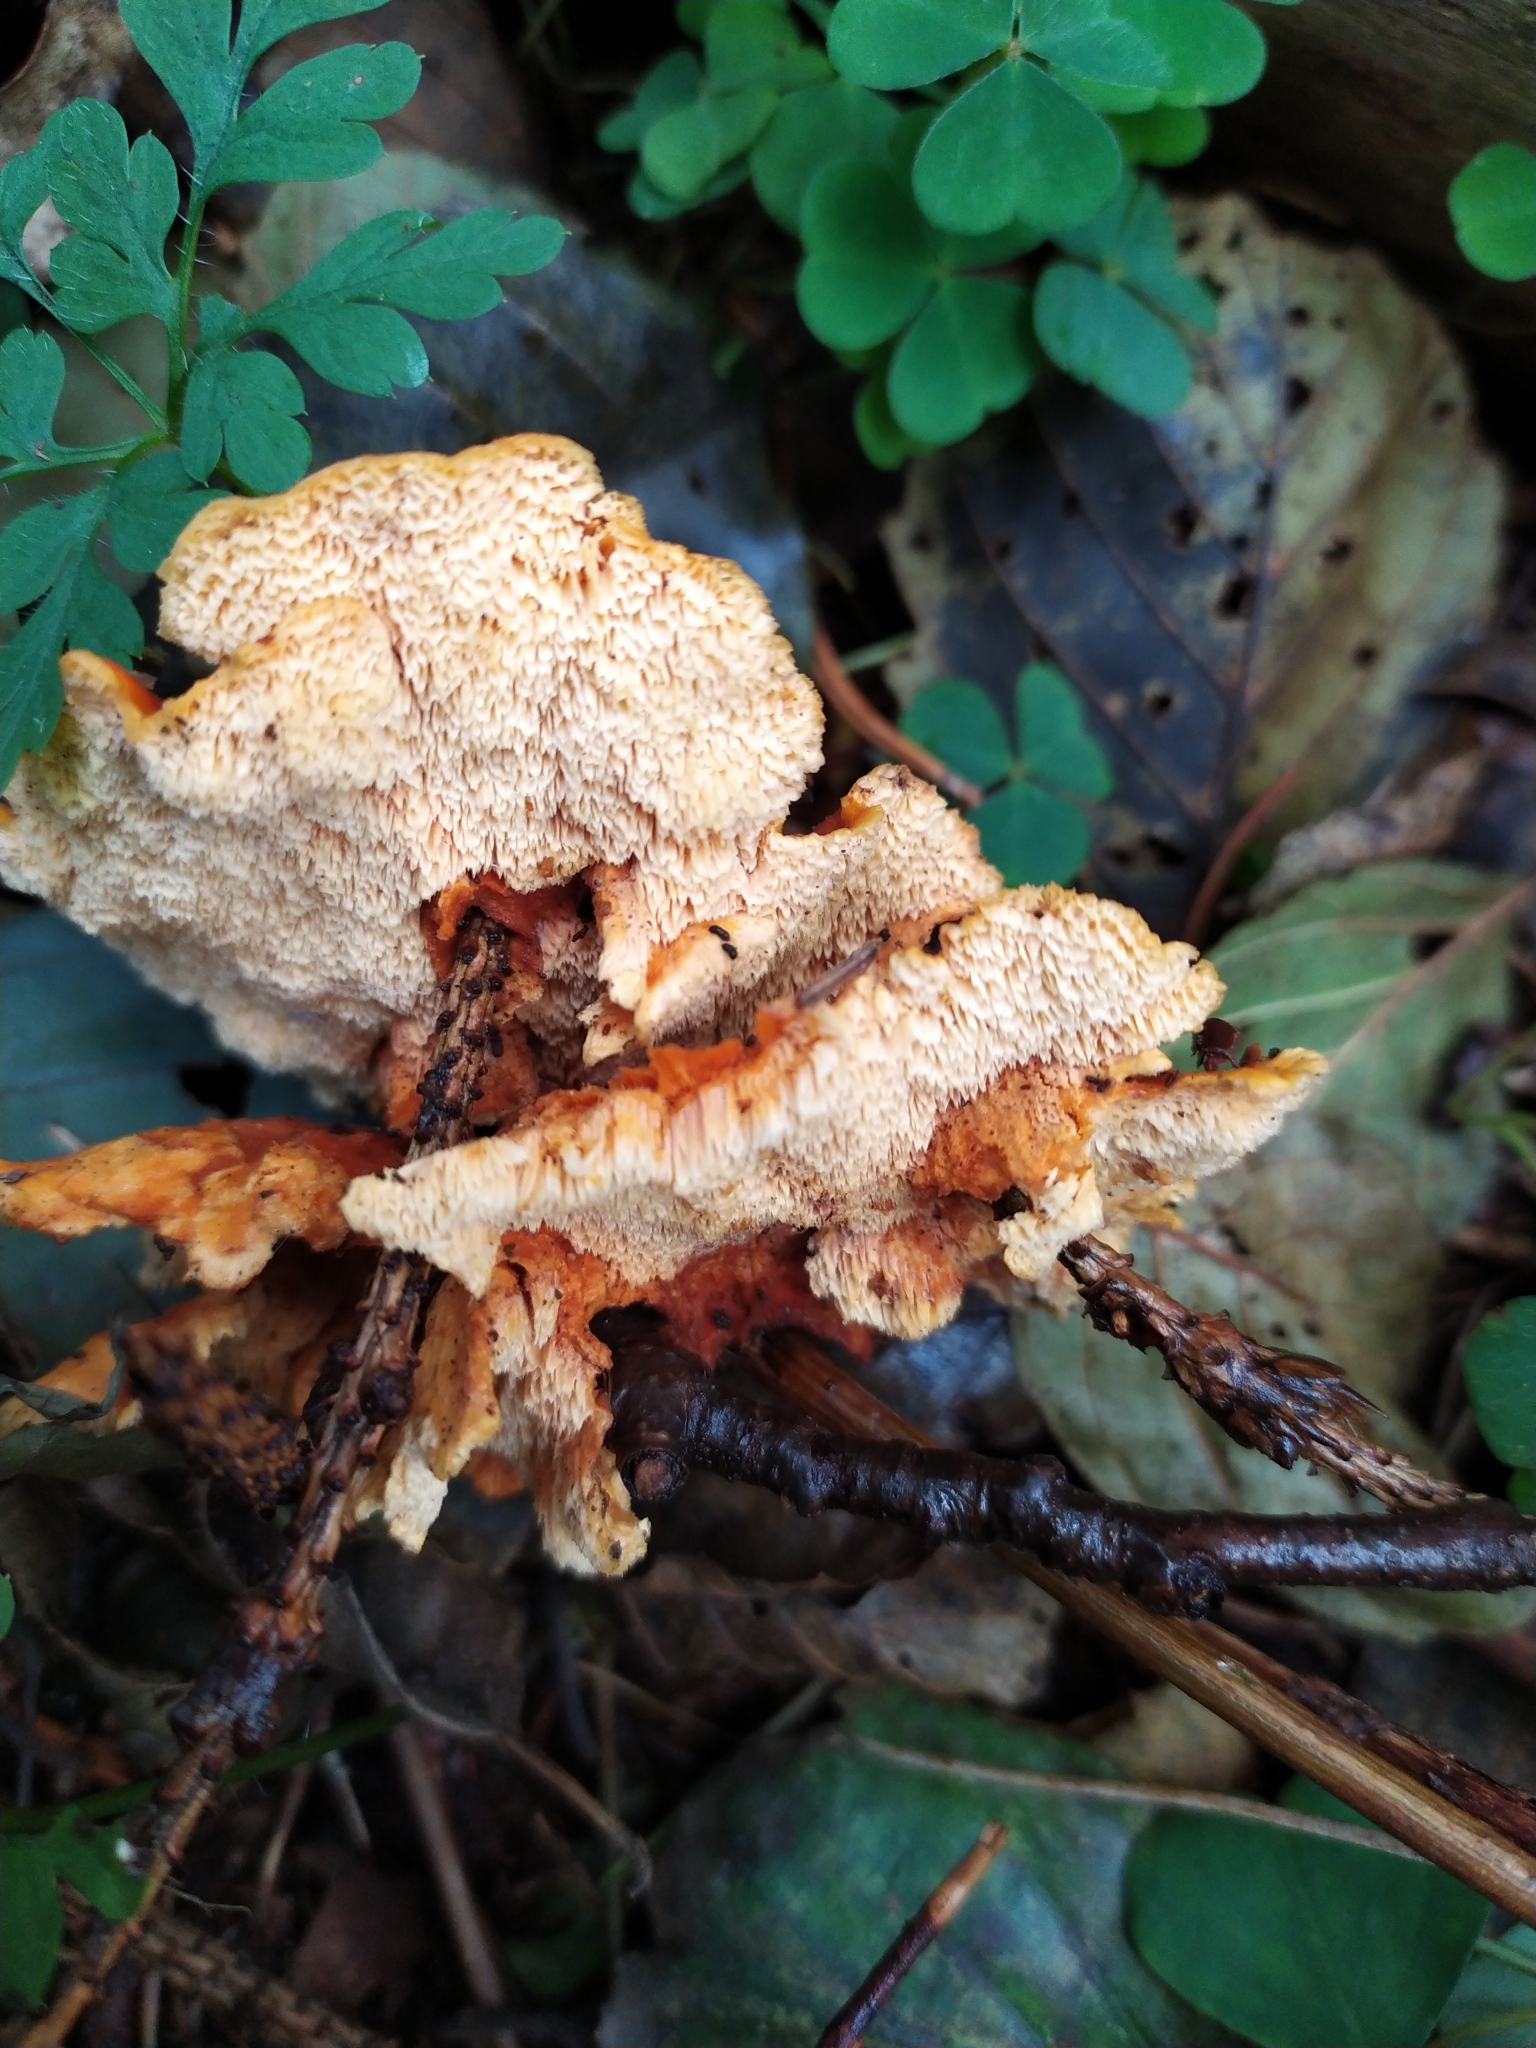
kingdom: Fungi
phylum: Basidiomycota
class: Agaricomycetes
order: Polyporales
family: Pycnoporellaceae
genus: Pycnoporellus
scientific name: Pycnoporellus fulgens
